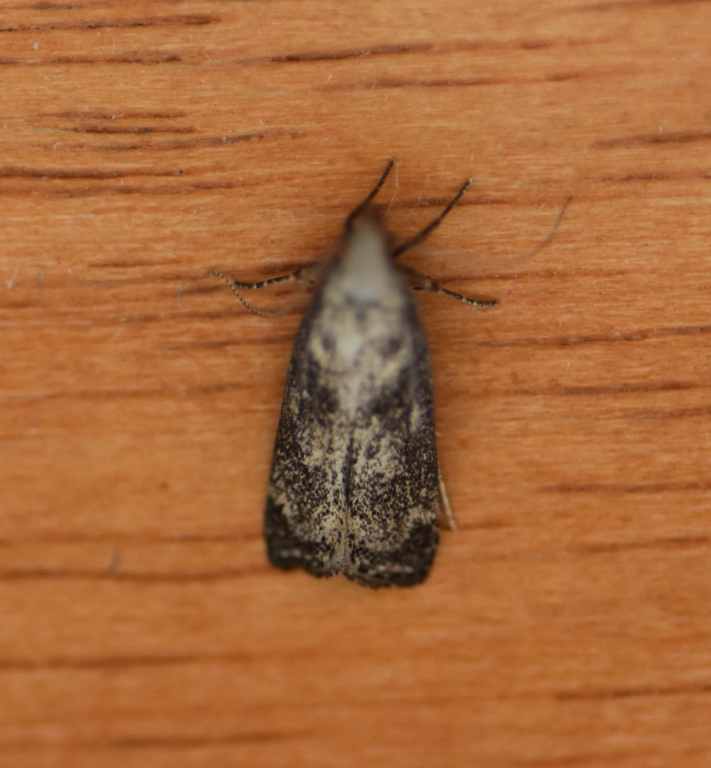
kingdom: Animalia
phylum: Arthropoda
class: Insecta
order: Lepidoptera
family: Gelechiidae
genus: Dichomeris
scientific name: Dichomeris inversella
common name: Inverse dichomeris moth
